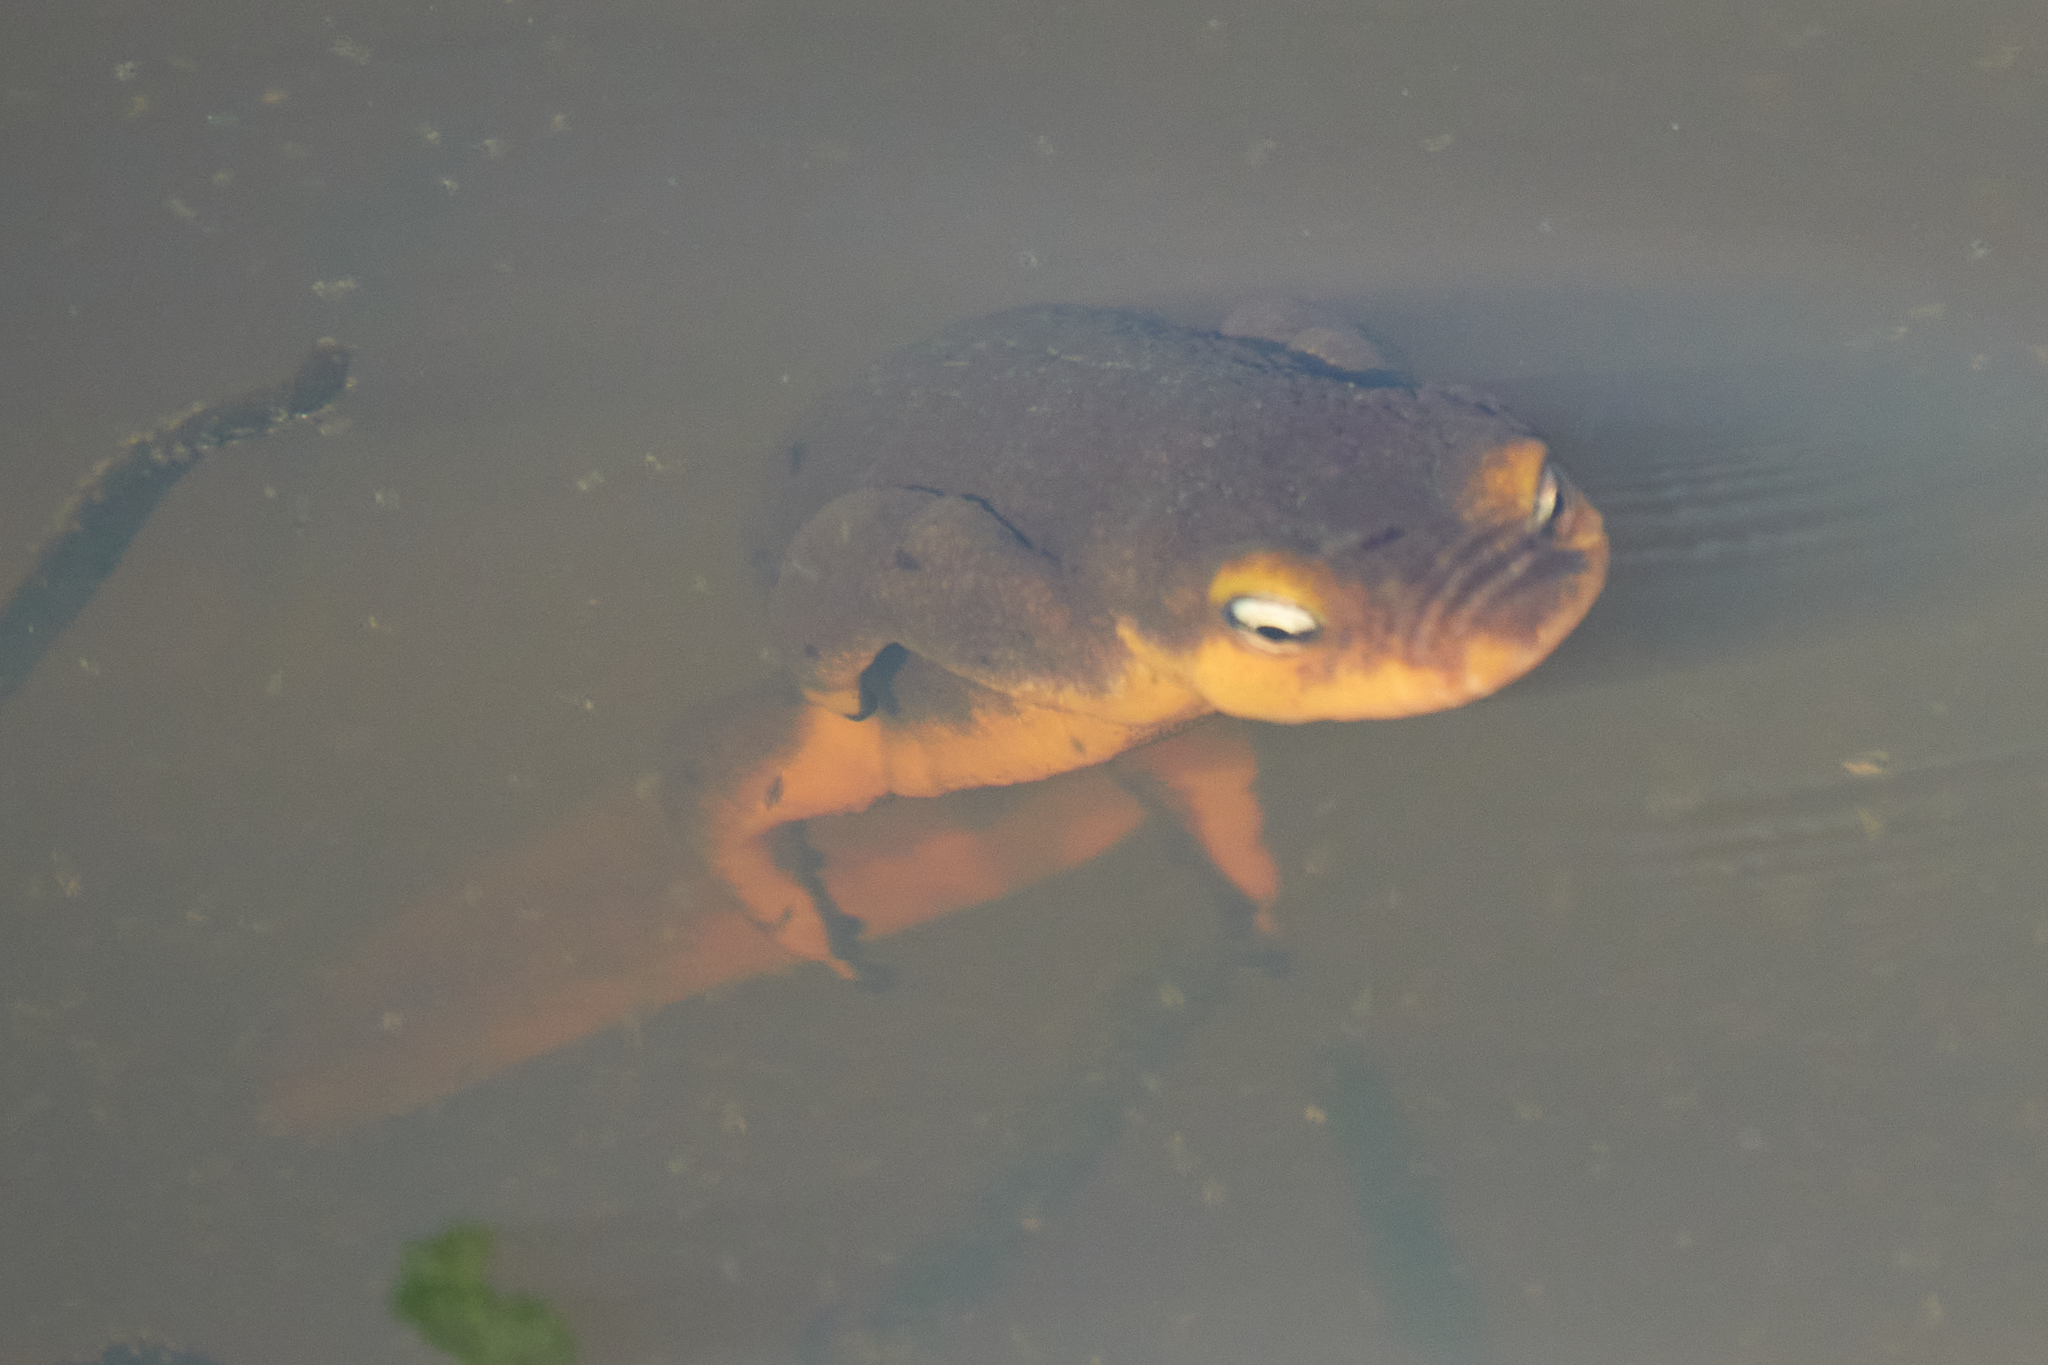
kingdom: Animalia
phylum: Chordata
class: Amphibia
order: Caudata
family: Salamandridae
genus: Taricha
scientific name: Taricha torosa
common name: California newt
